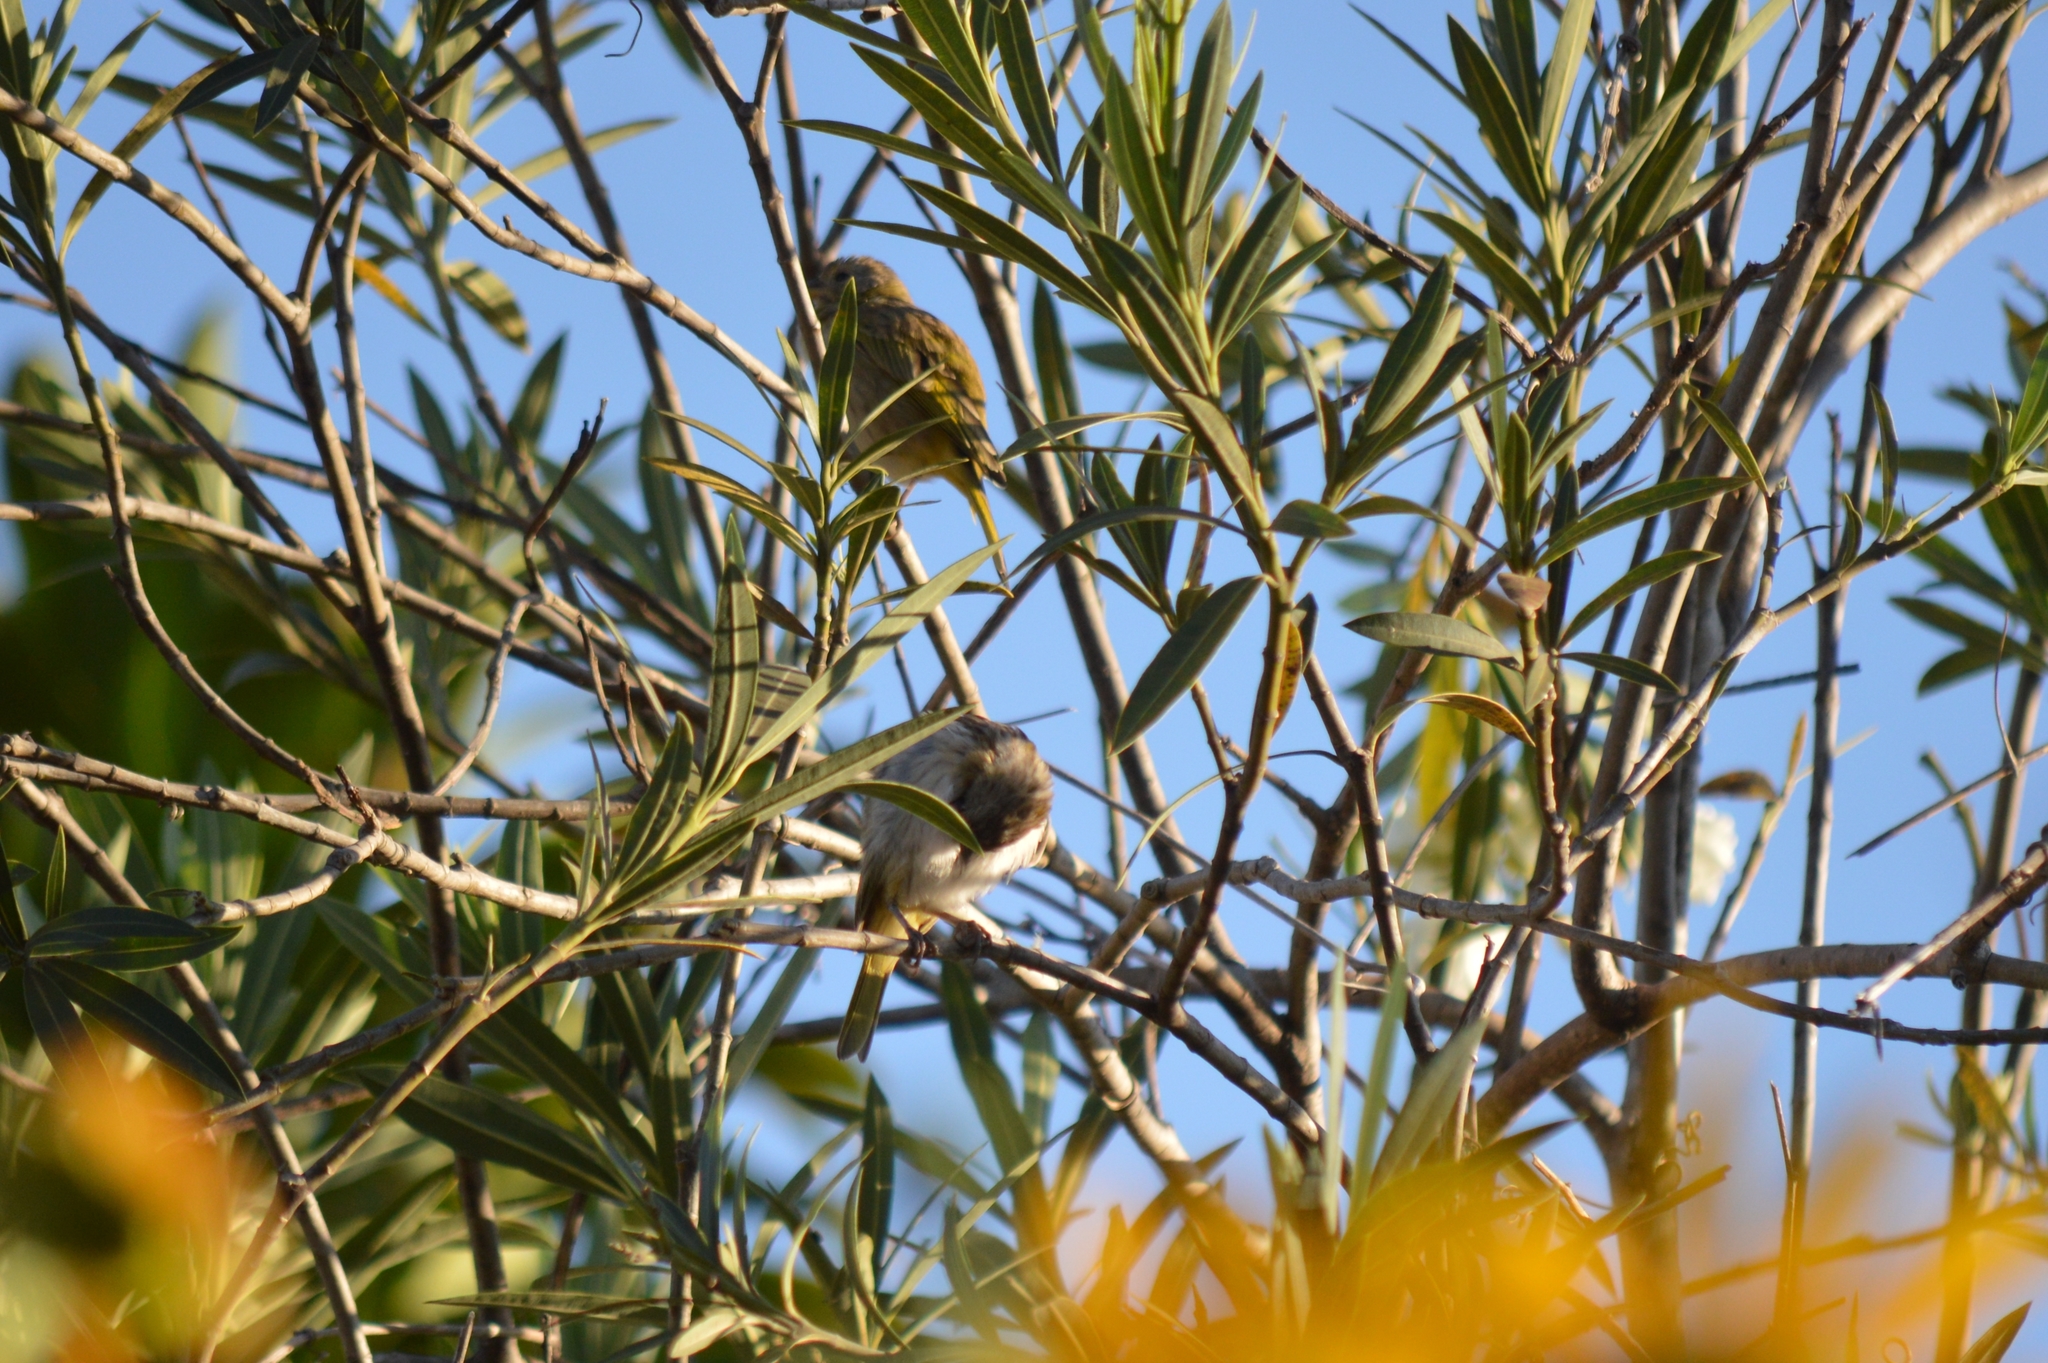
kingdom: Animalia
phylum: Chordata
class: Aves
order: Passeriformes
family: Thraupidae
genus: Sicalis
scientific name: Sicalis flaveola
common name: Saffron finch
